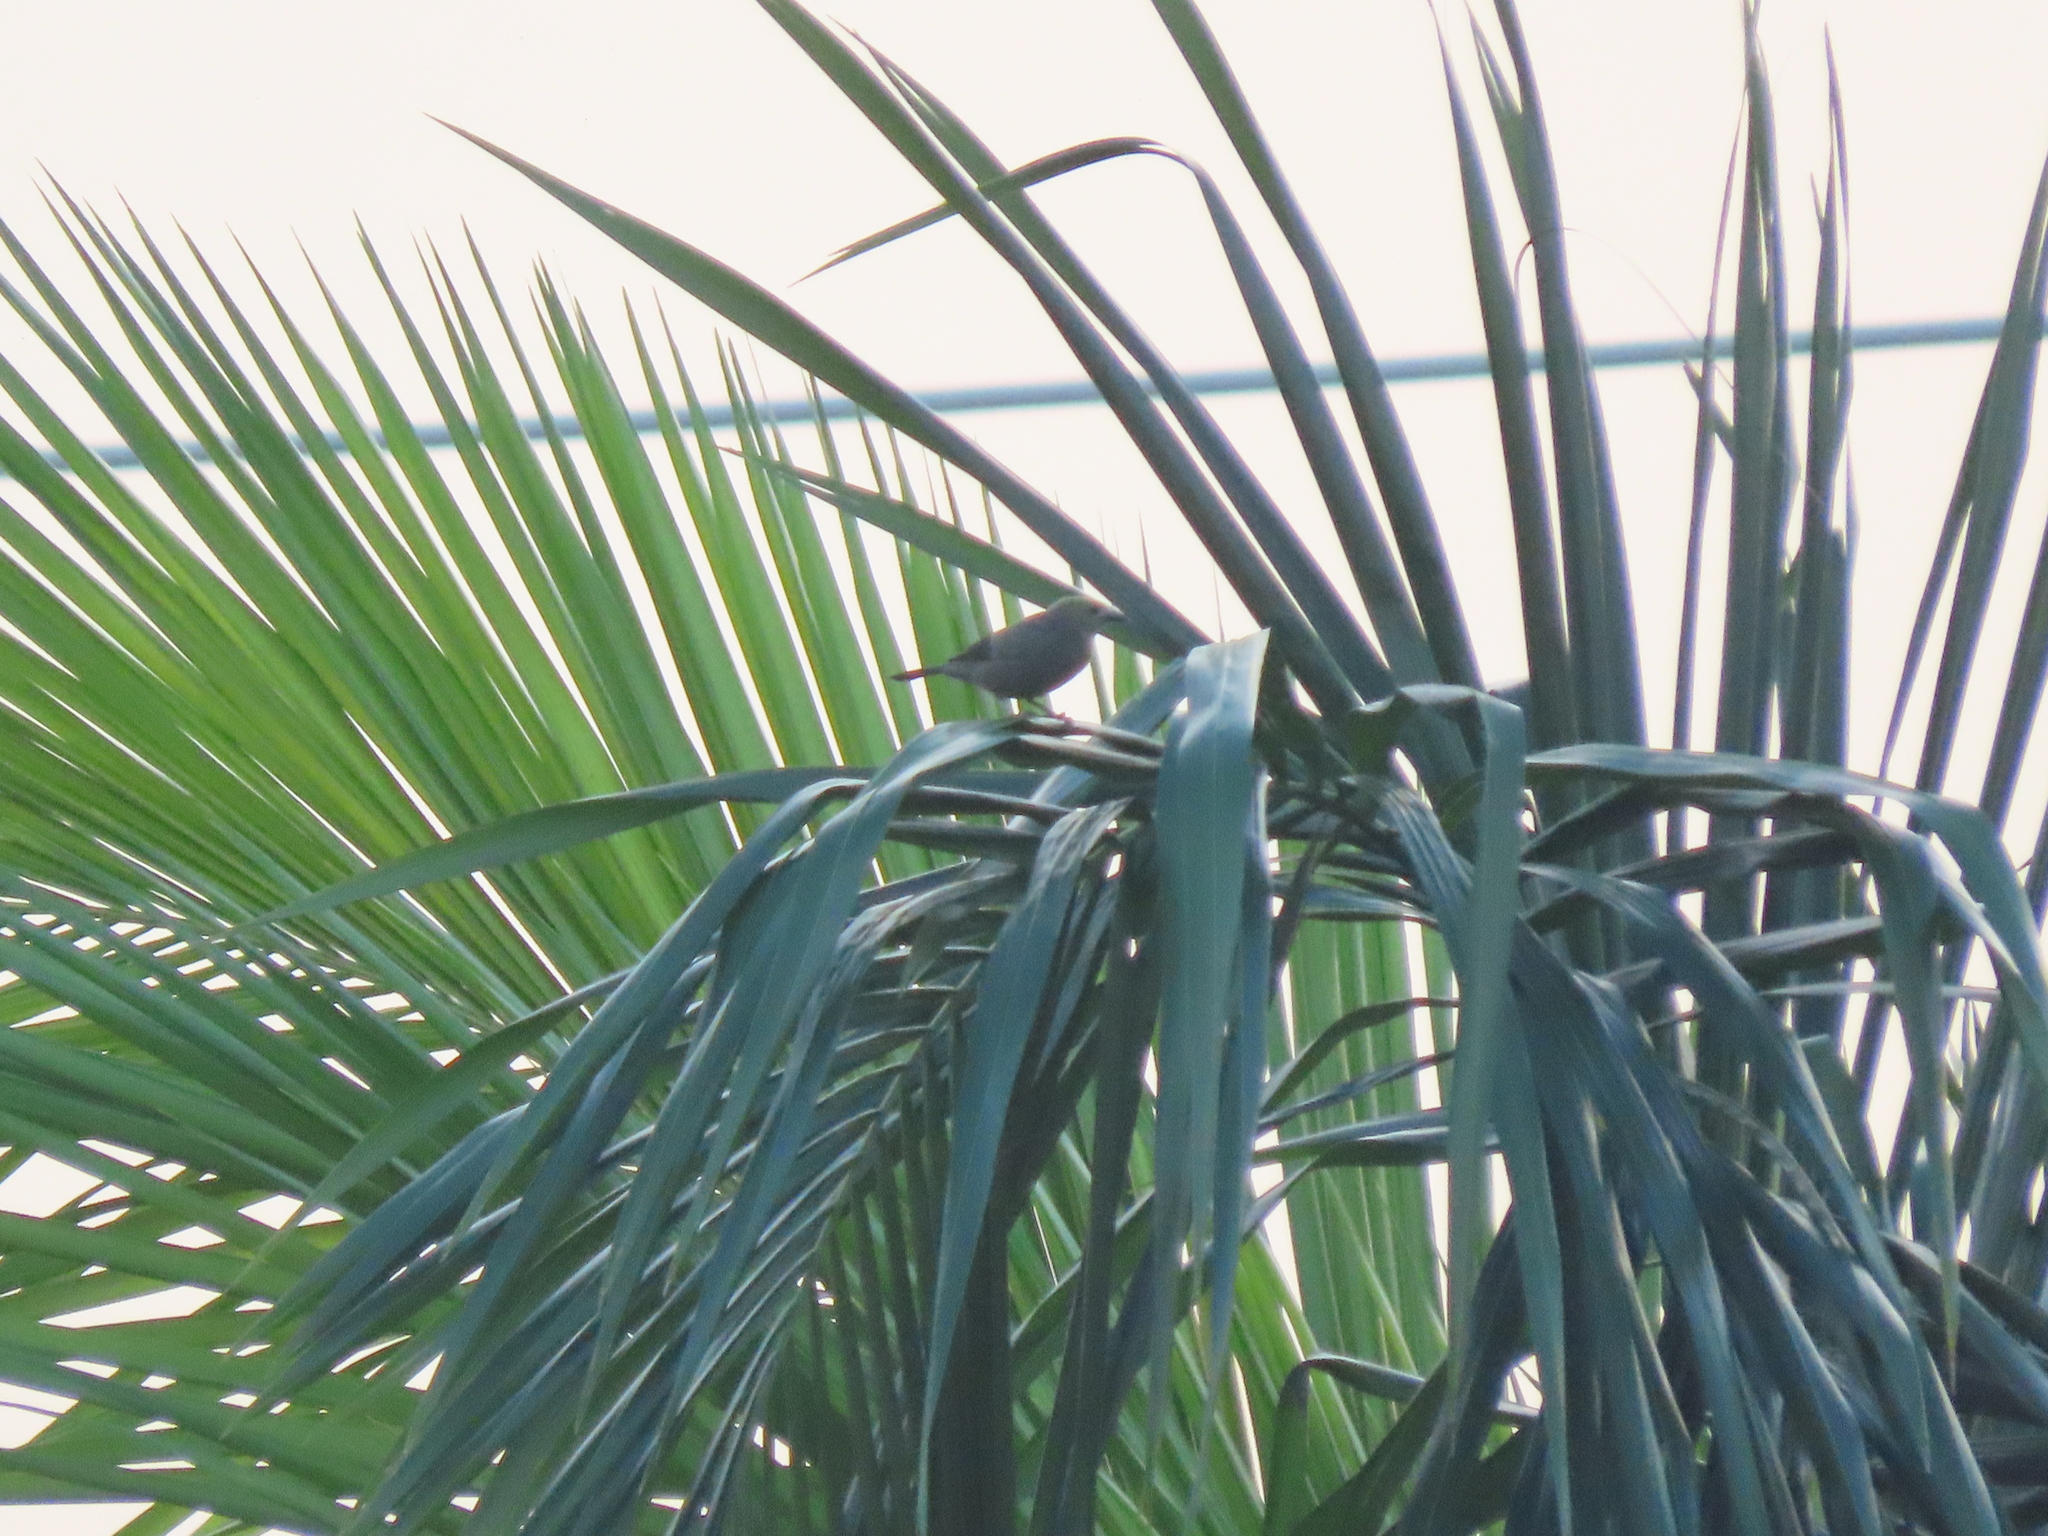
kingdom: Animalia
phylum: Chordata
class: Aves
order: Passeriformes
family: Thraupidae
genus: Thraupis
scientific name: Thraupis palmarum
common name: Palm tanager
